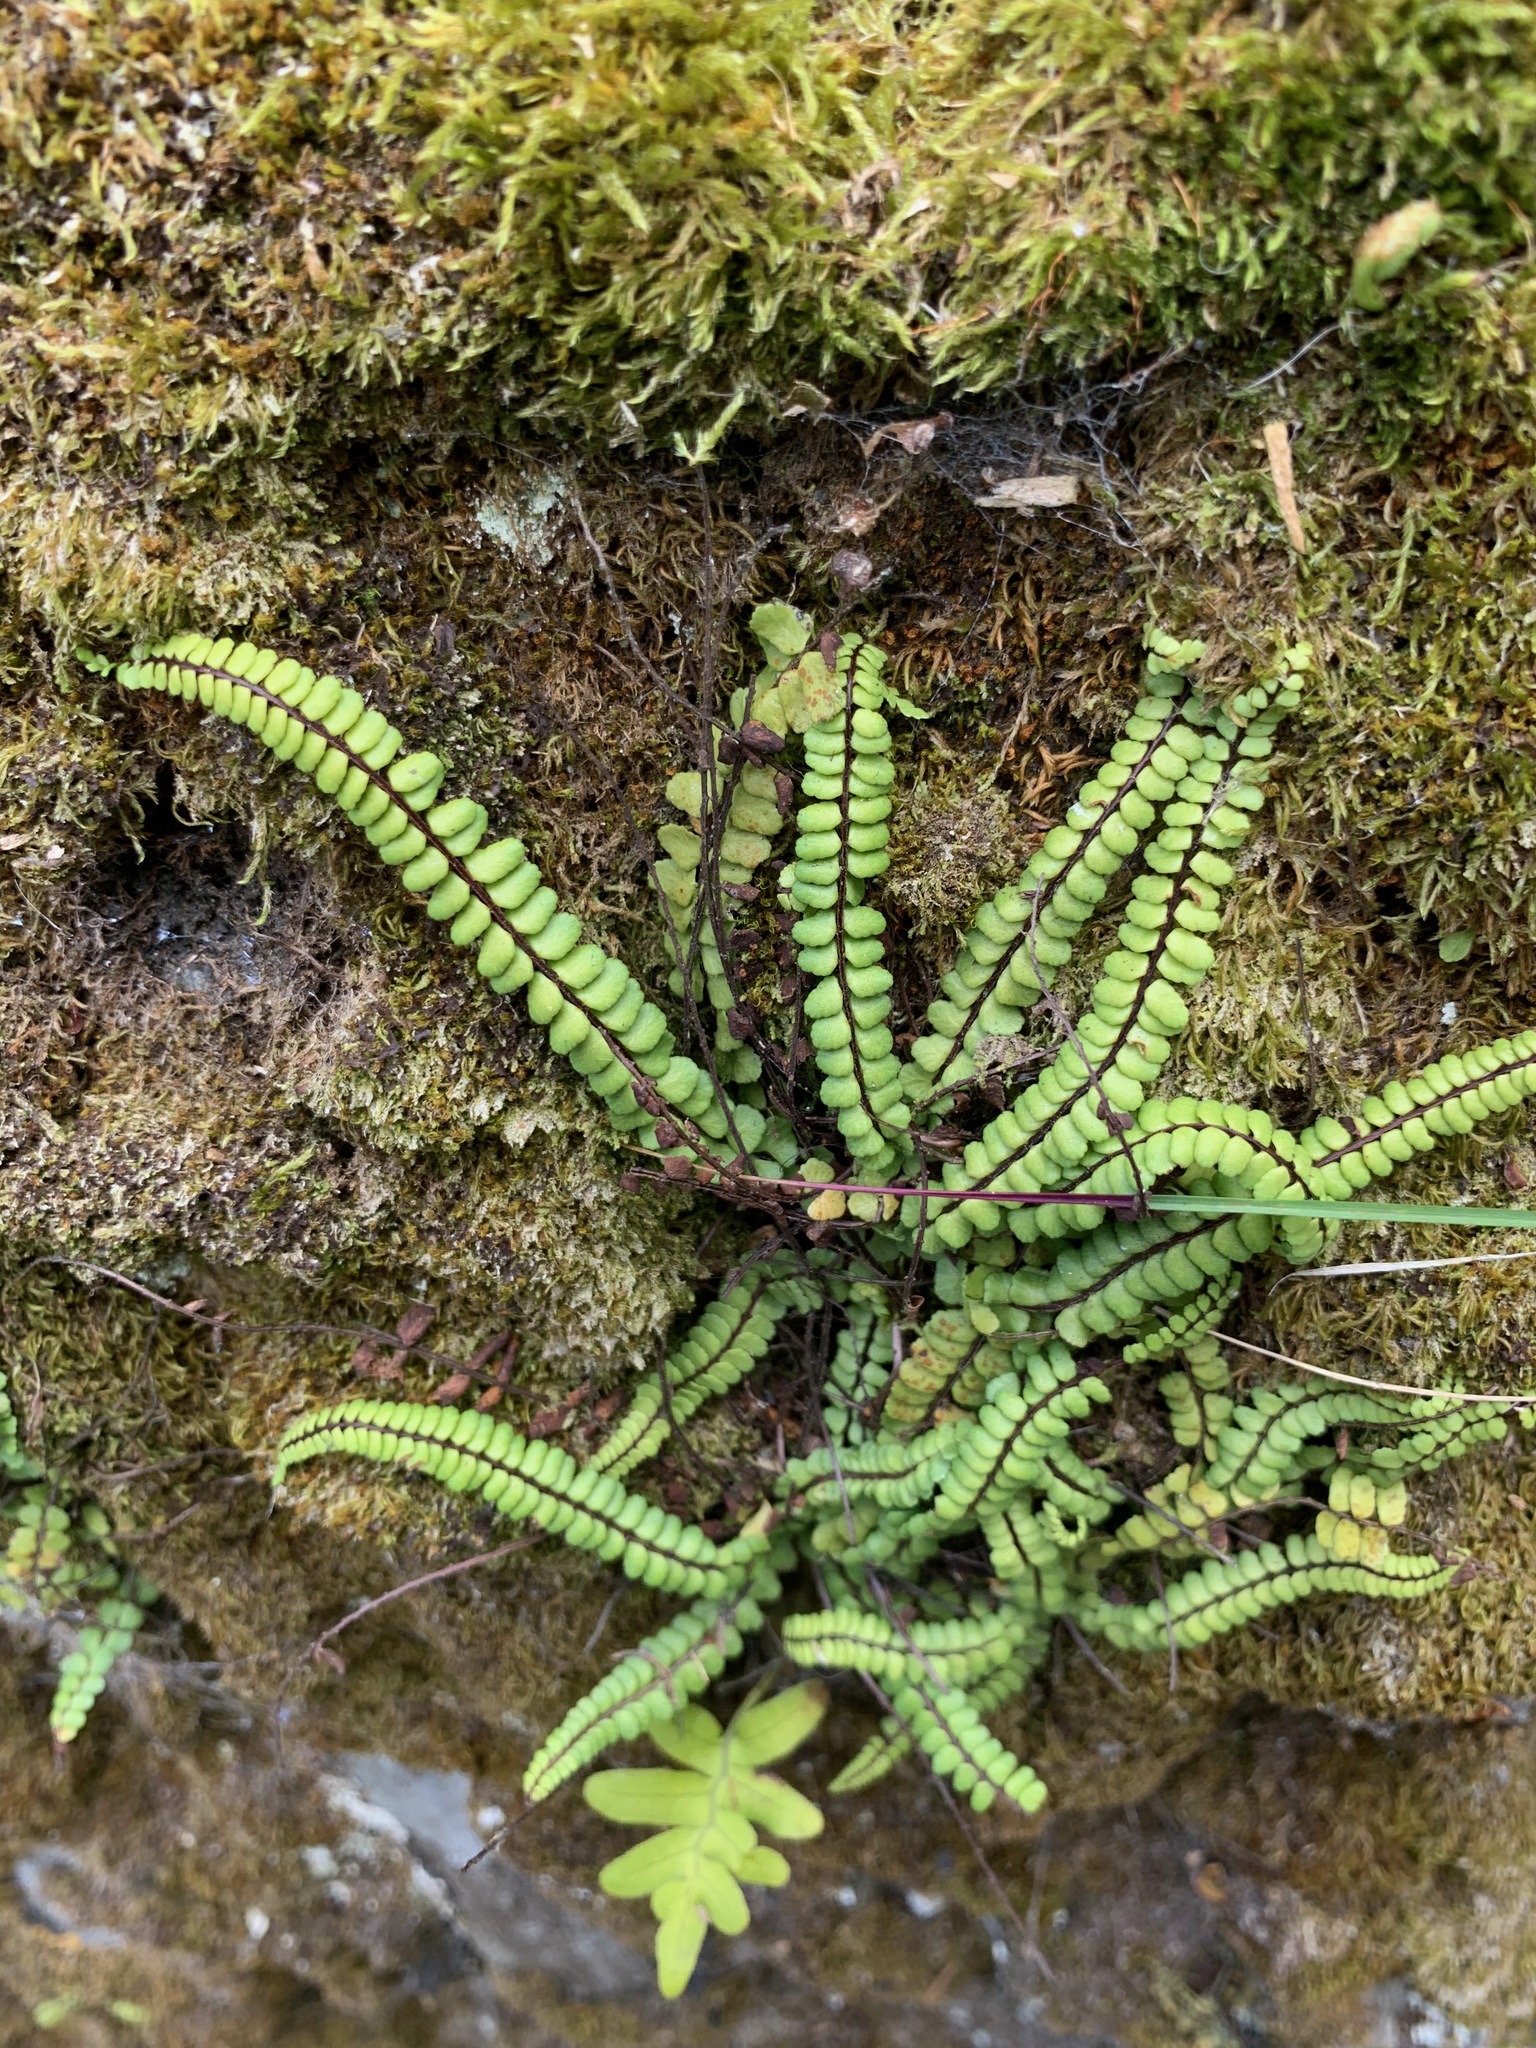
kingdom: Plantae
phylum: Tracheophyta
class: Polypodiopsida
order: Polypodiales
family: Aspleniaceae
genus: Asplenium
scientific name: Asplenium trichomanes
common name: Maidenhair spleenwort
